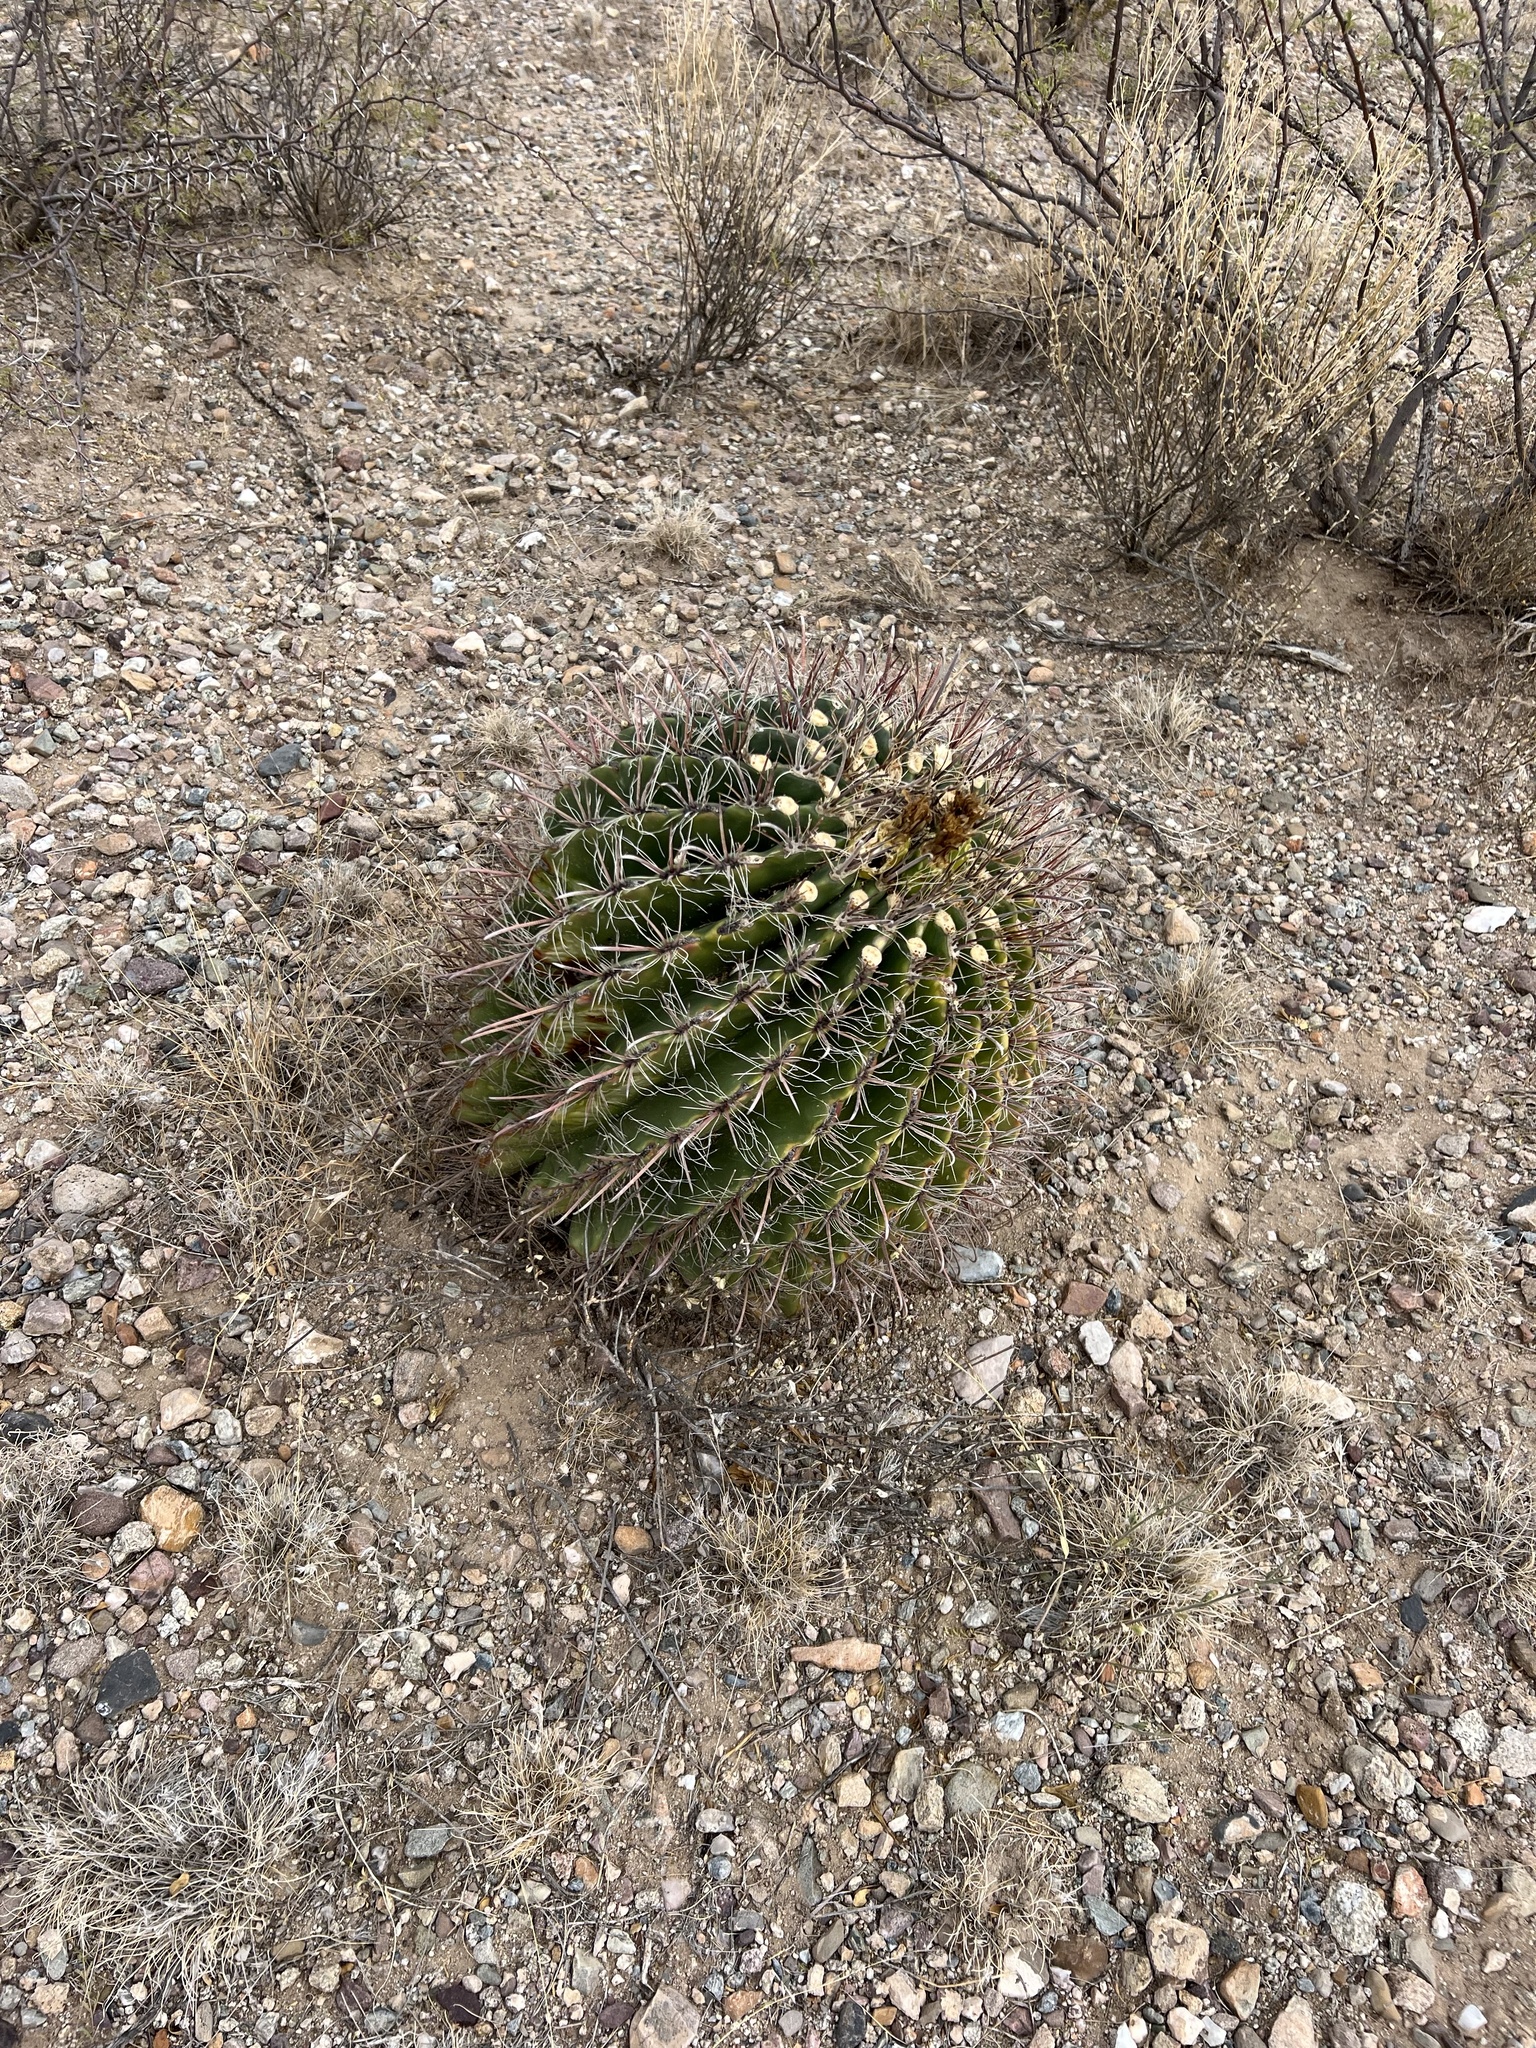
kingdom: Plantae
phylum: Tracheophyta
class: Magnoliopsida
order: Caryophyllales
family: Cactaceae
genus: Ferocactus
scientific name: Ferocactus wislizeni
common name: Candy barrel cactus
